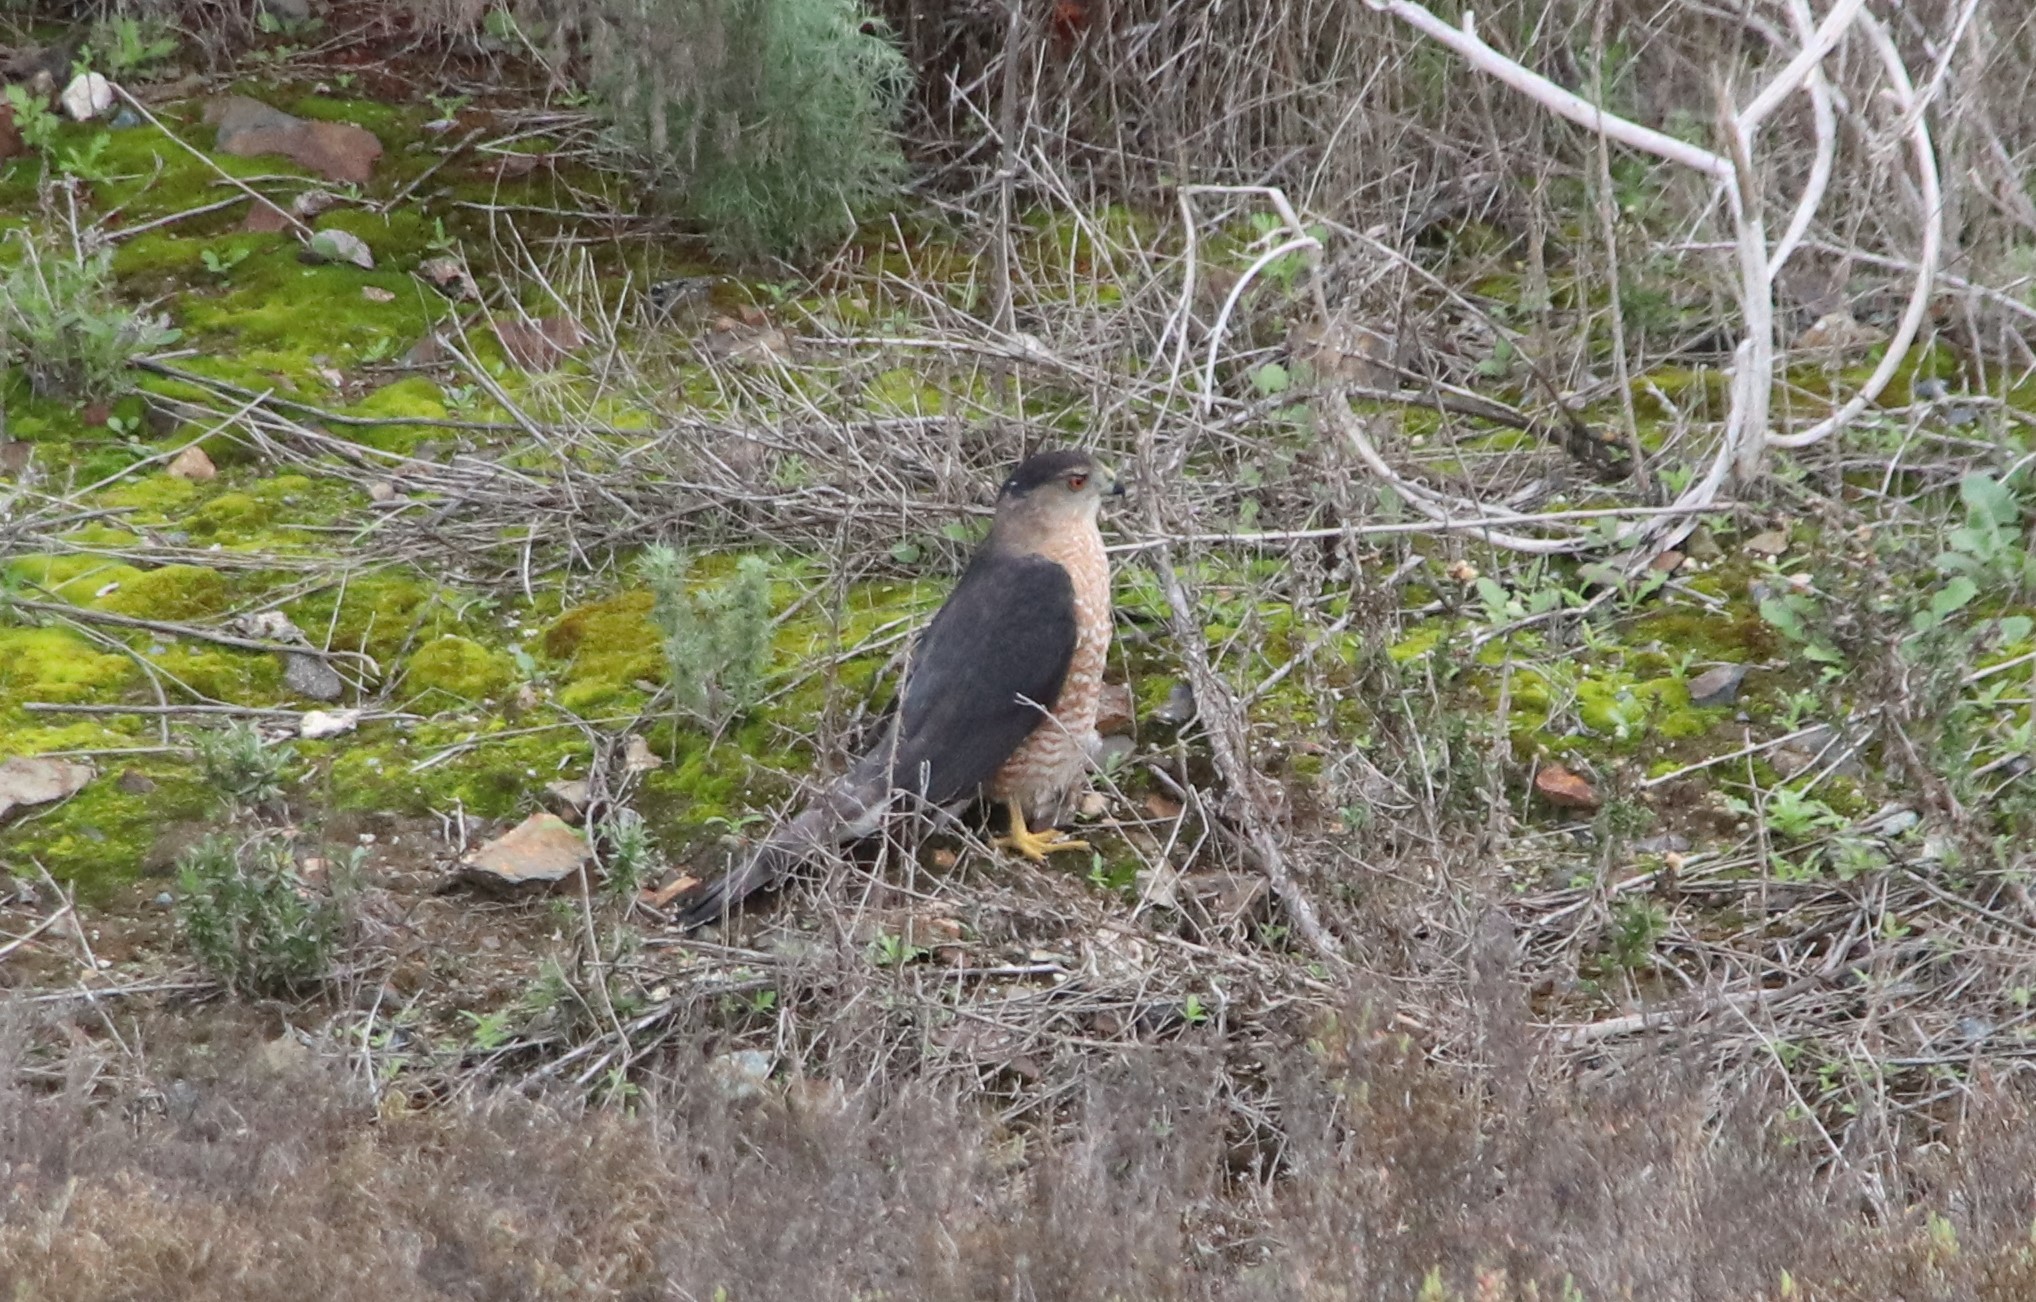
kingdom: Animalia
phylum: Chordata
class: Aves
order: Accipitriformes
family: Accipitridae
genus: Accipiter
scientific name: Accipiter cooperii
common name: Cooper's hawk
